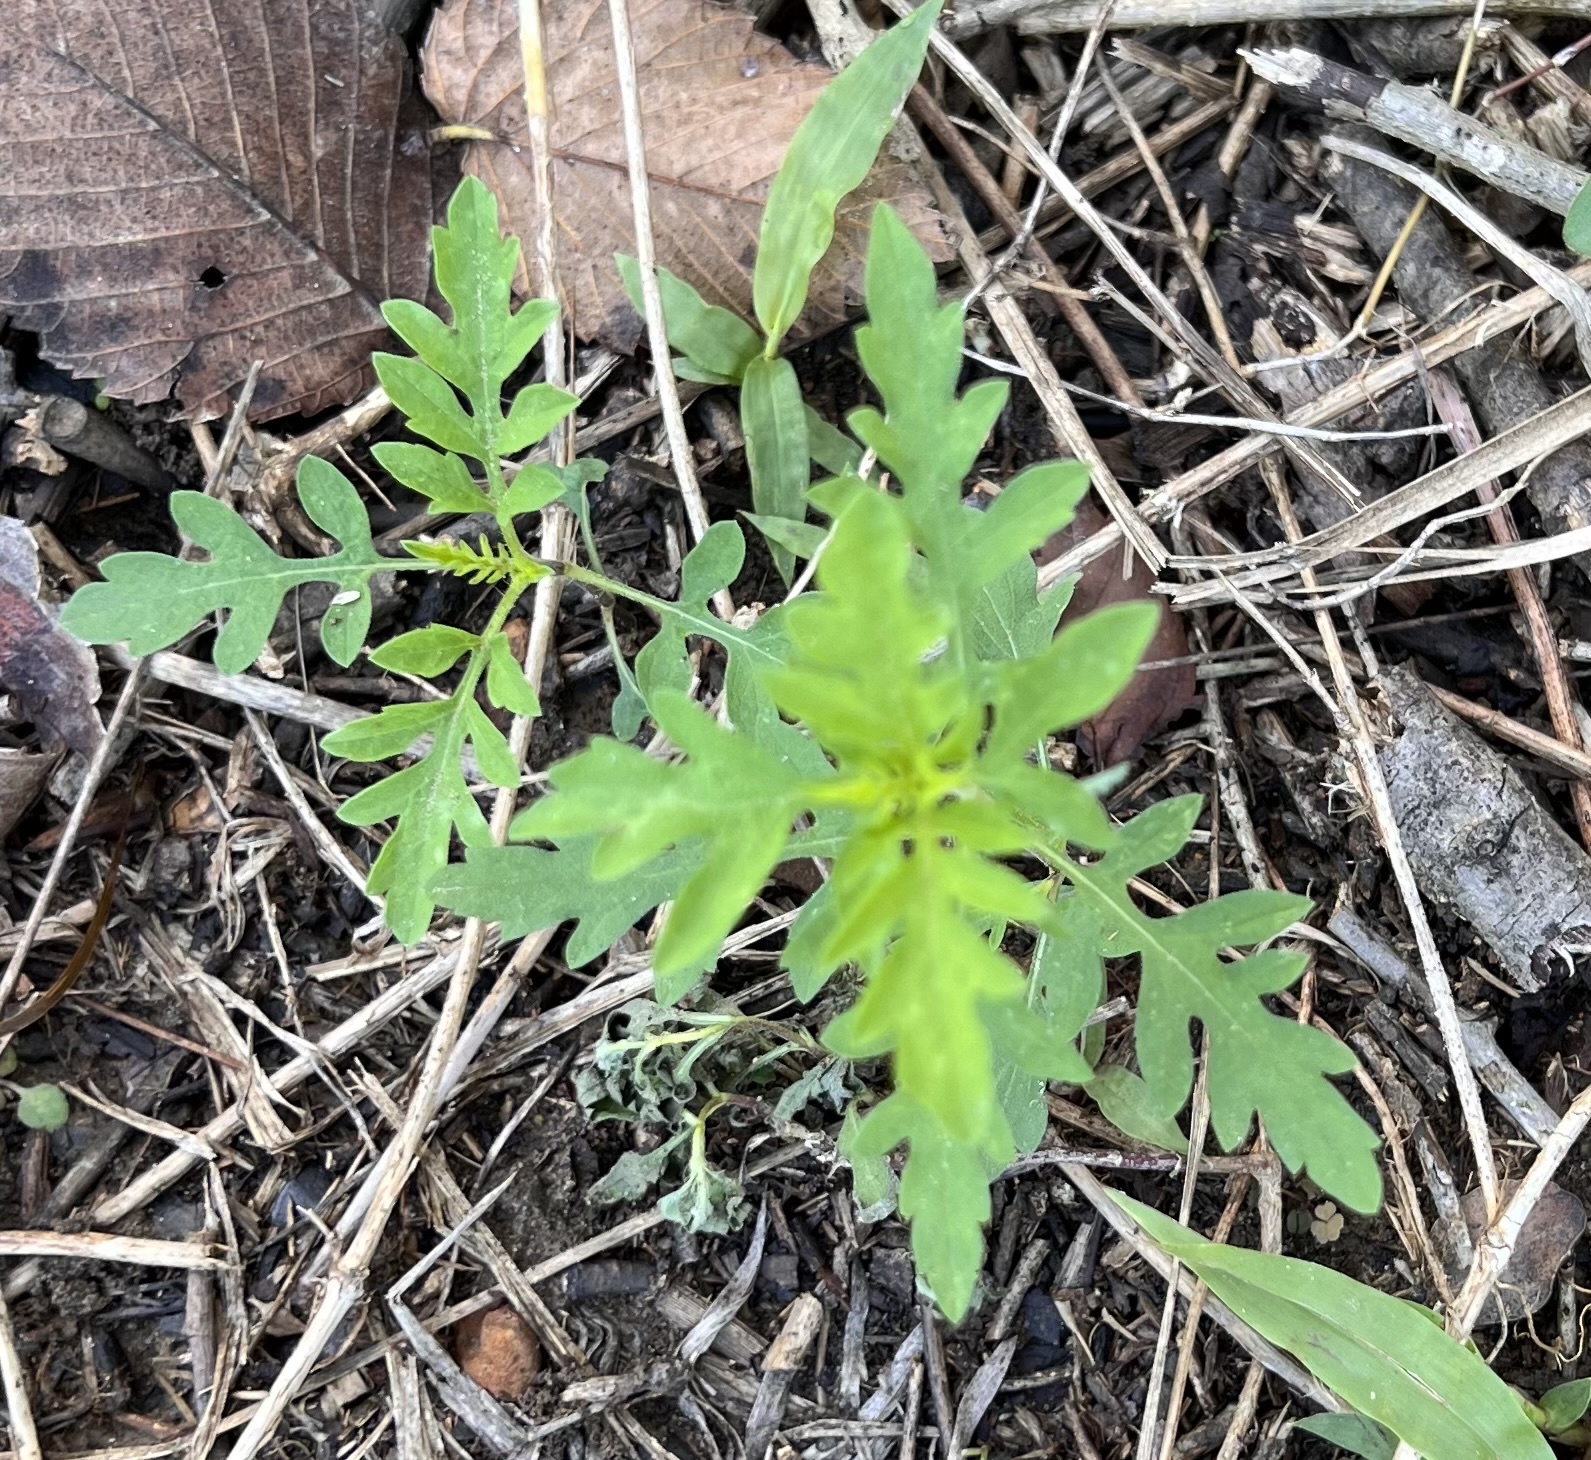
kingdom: Plantae
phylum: Tracheophyta
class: Magnoliopsida
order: Asterales
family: Asteraceae
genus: Ambrosia
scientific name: Ambrosia psilostachya
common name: Perennial ragweed
